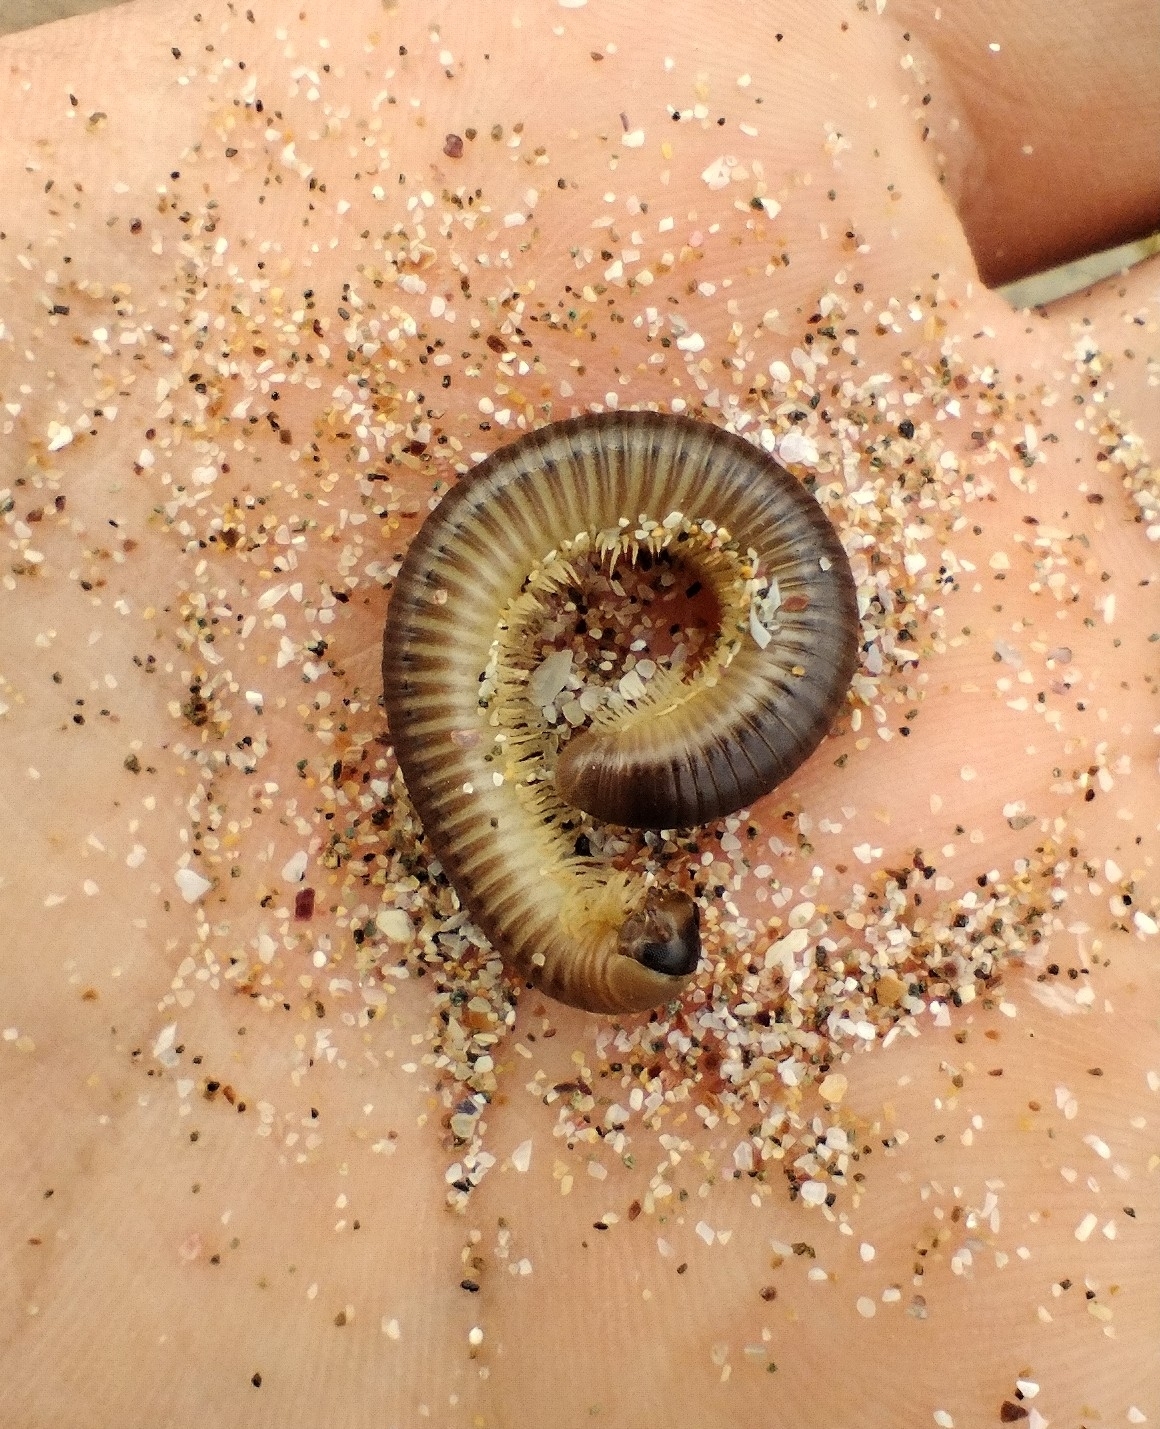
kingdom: Animalia
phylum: Arthropoda
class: Diplopoda
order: Julida
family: Julidae
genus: Pachyiulus
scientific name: Pachyiulus flavipes
